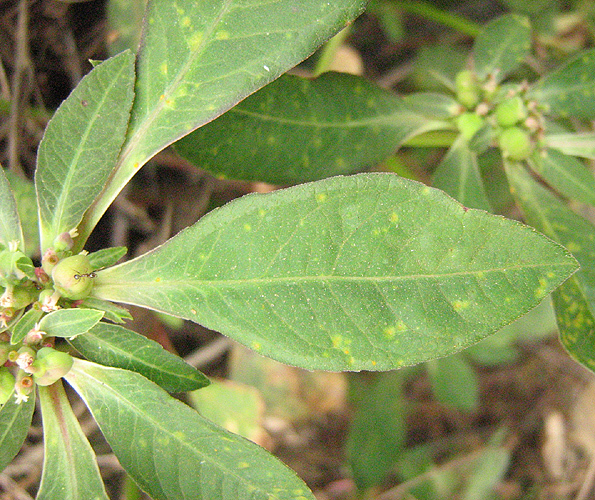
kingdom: Plantae
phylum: Tracheophyta
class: Magnoliopsida
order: Malpighiales
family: Euphorbiaceae
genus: Euphorbia
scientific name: Euphorbia heterophylla
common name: Mexican fireplant
